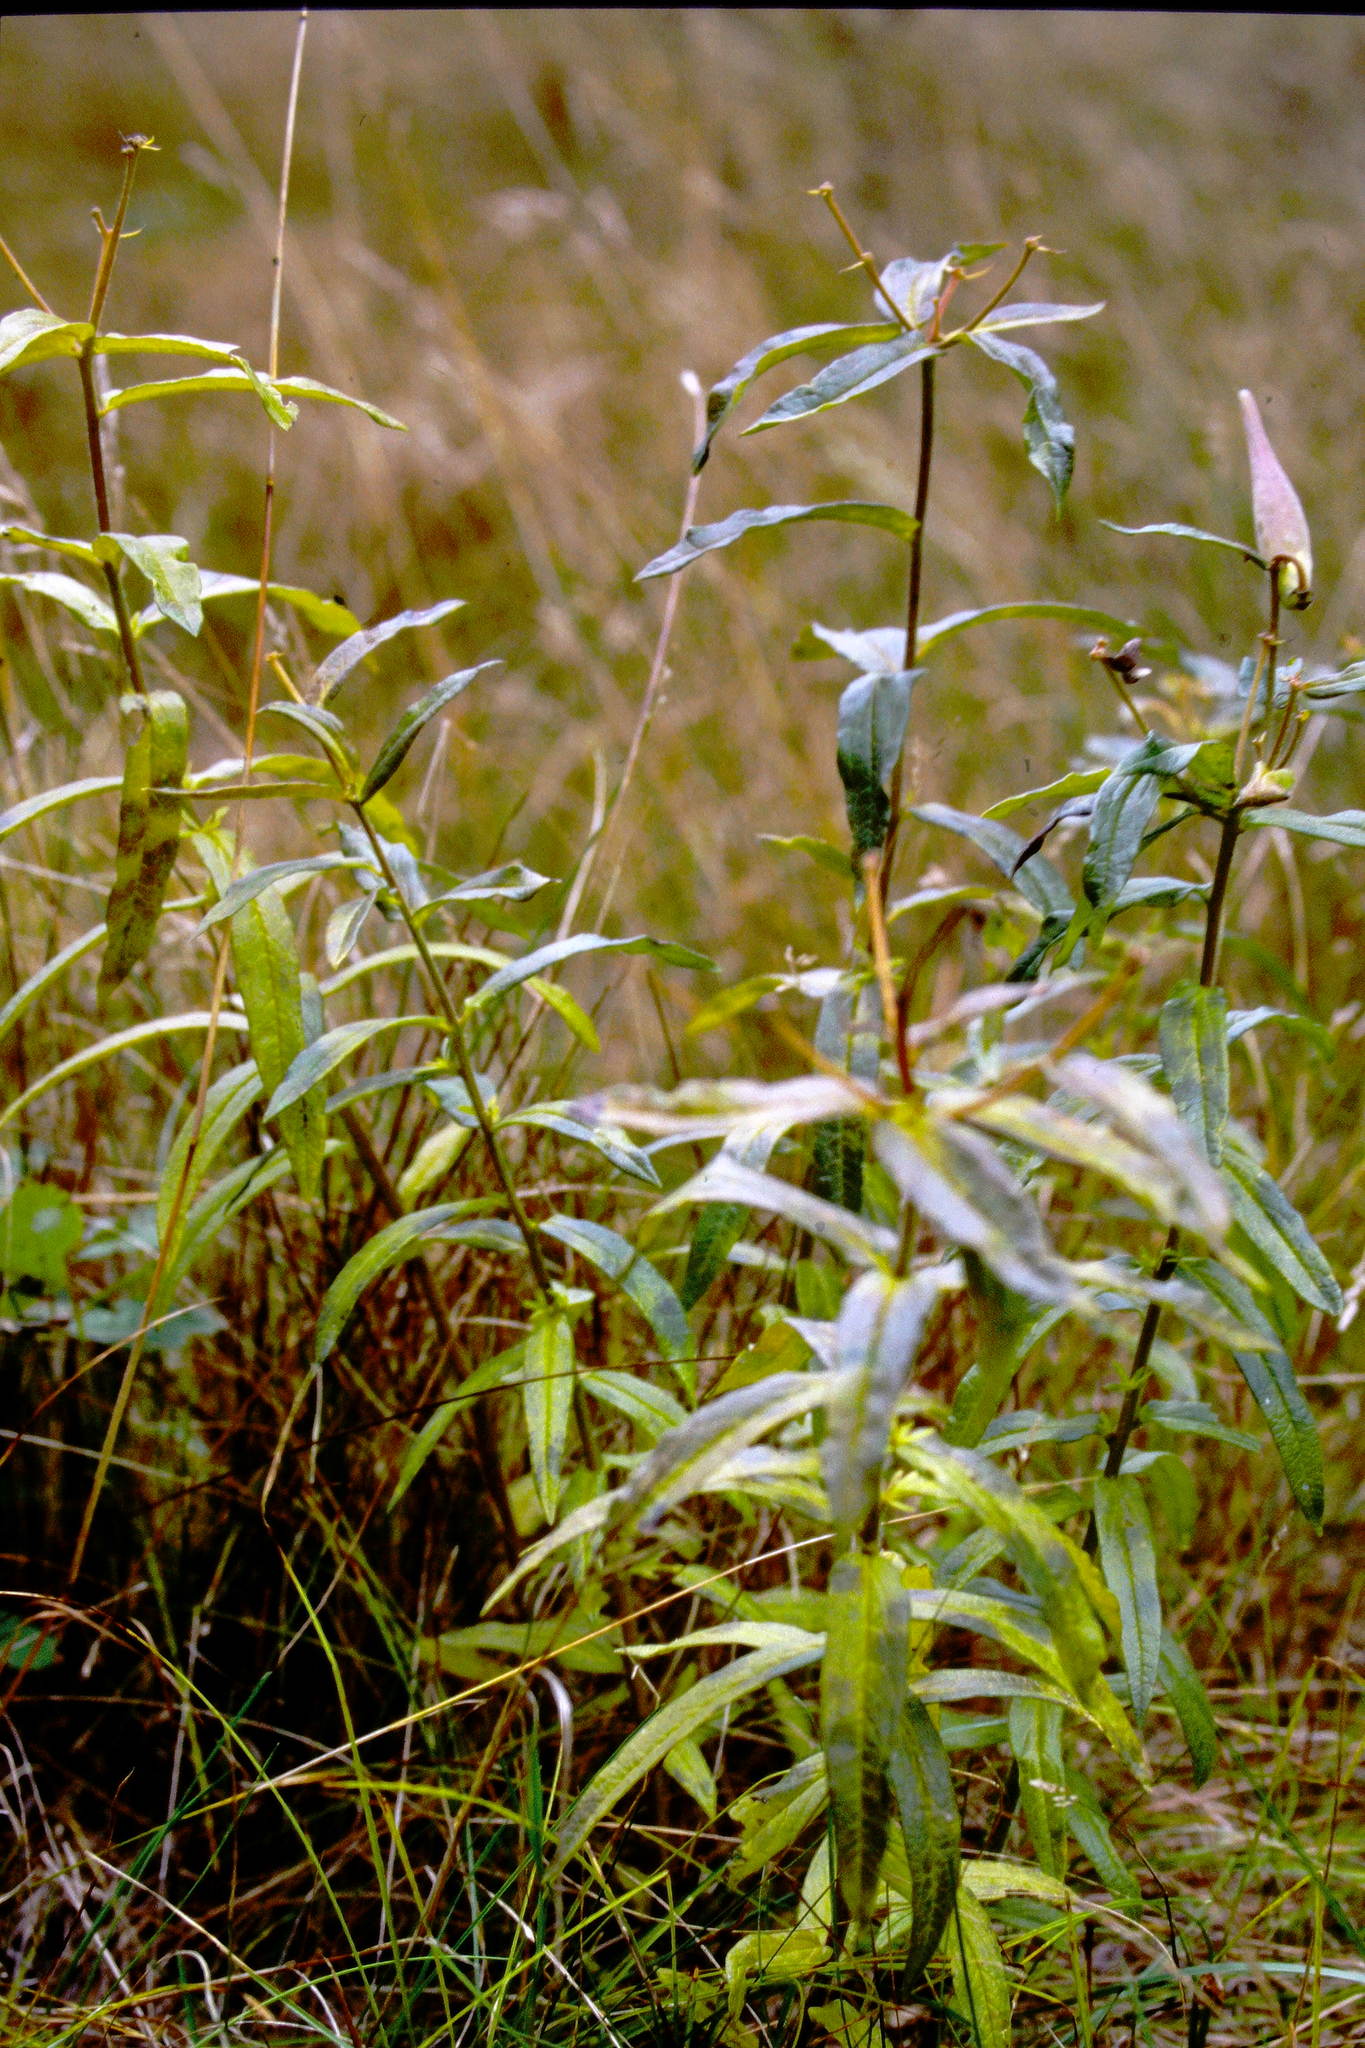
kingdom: Plantae
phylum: Tracheophyta
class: Magnoliopsida
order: Gentianales
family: Apocynaceae
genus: Asclepias
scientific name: Asclepias tuberosa
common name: Butterfly milkweed
